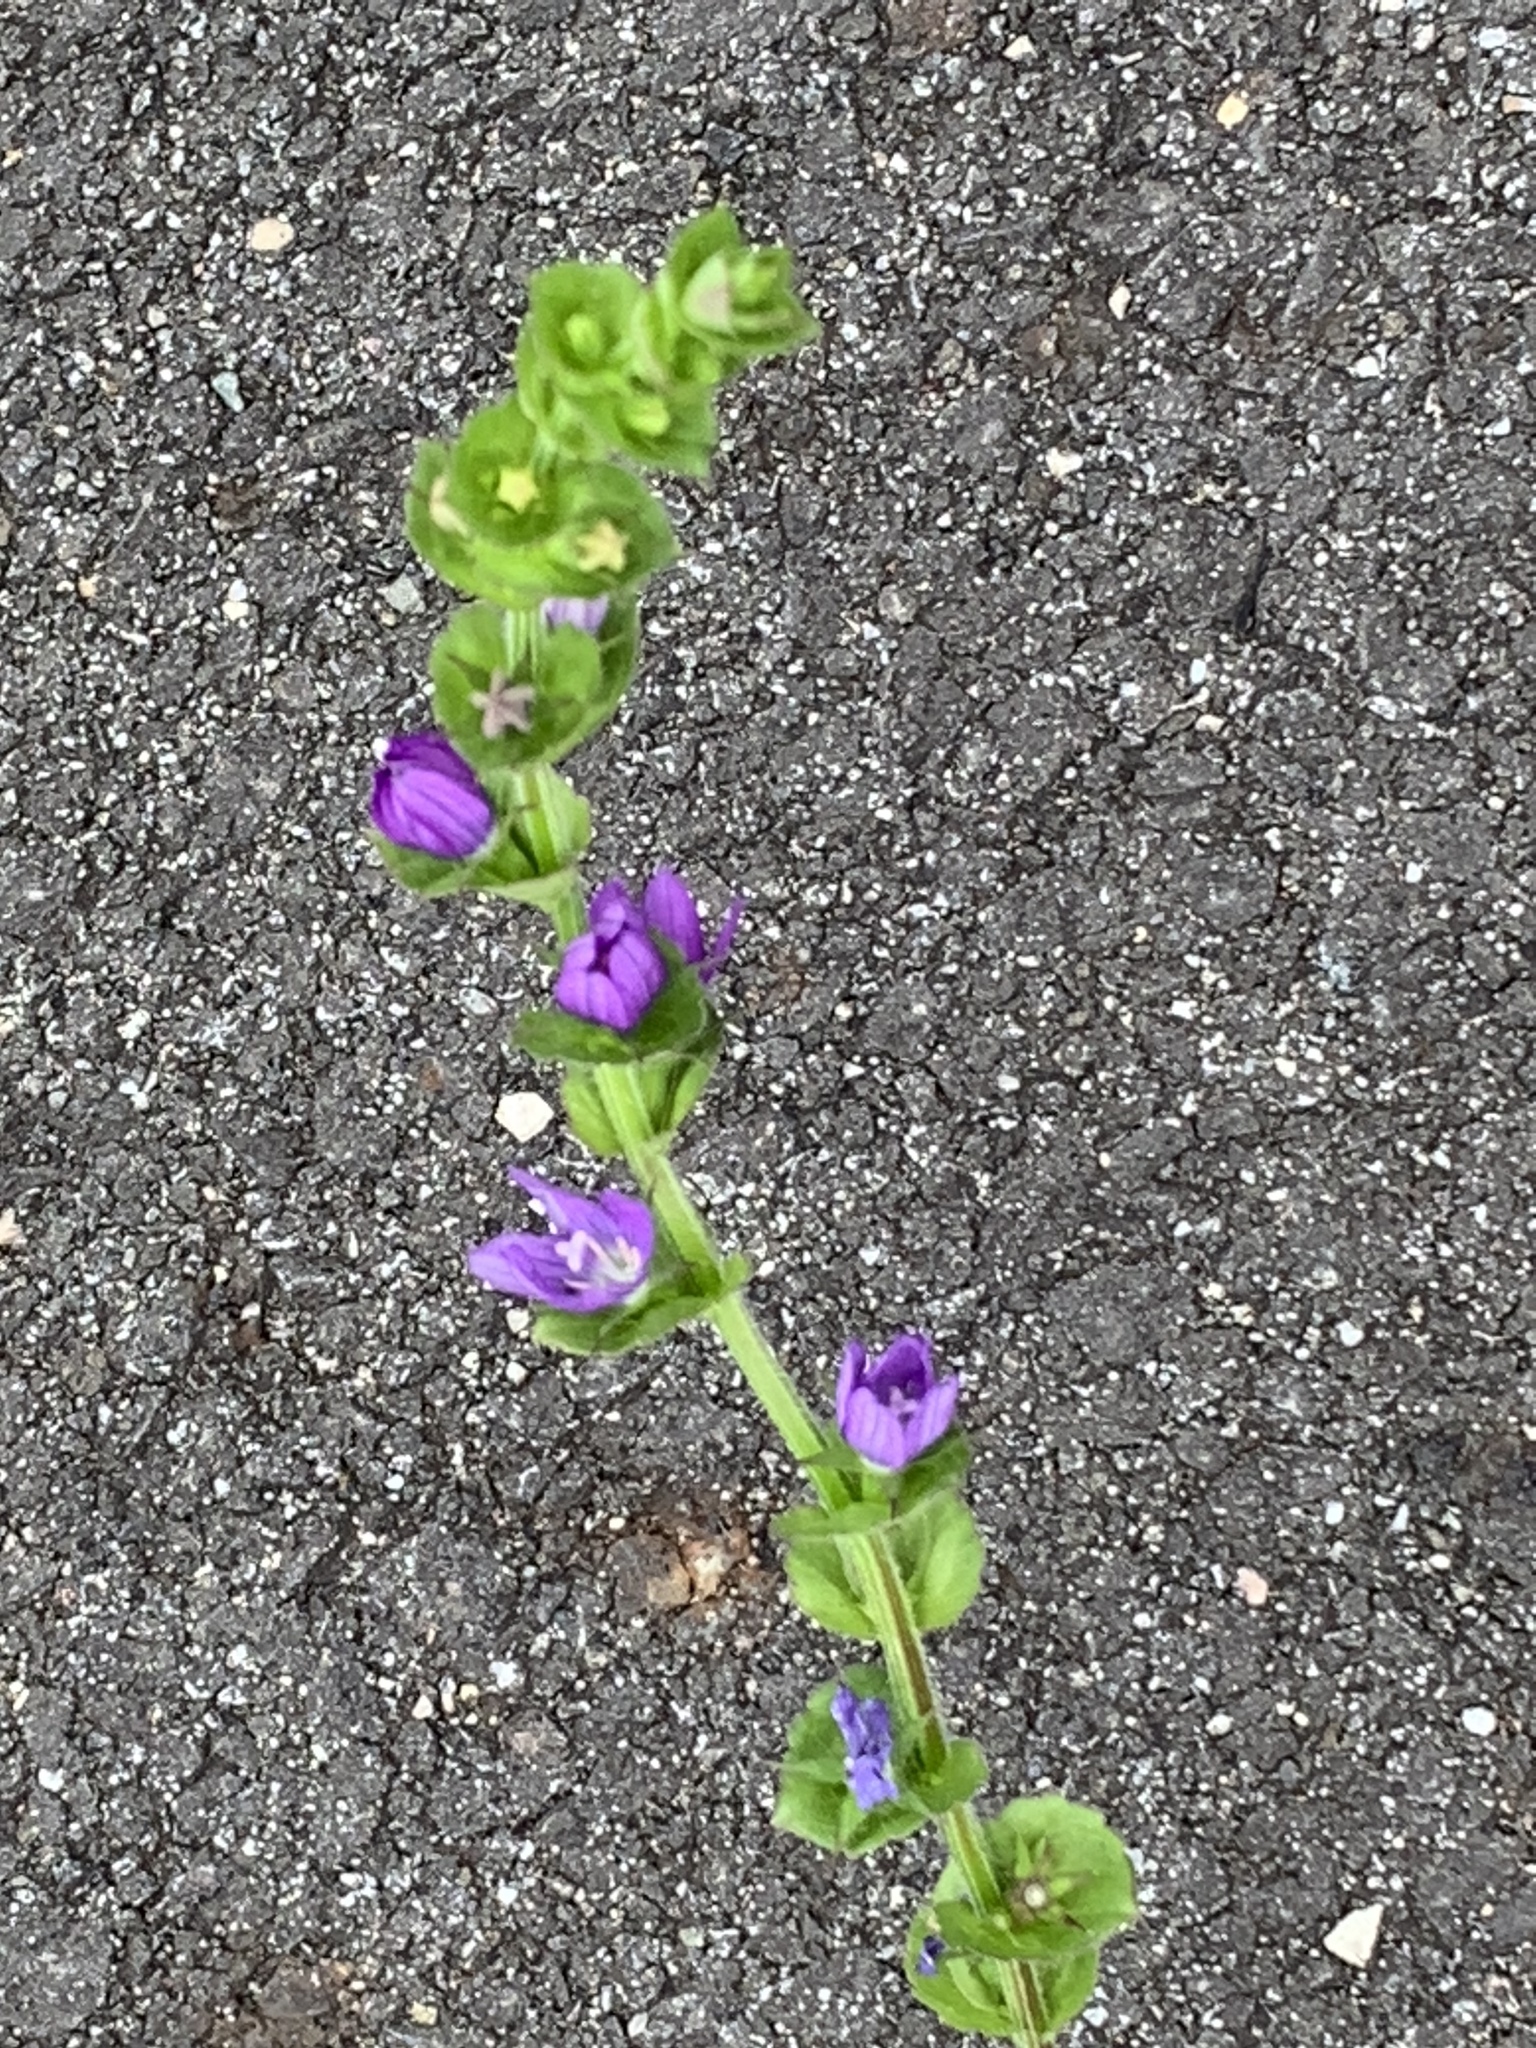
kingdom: Plantae
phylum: Tracheophyta
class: Magnoliopsida
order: Asterales
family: Campanulaceae
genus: Triodanis
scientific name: Triodanis perfoliata
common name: Clasping venus' looking-glass
